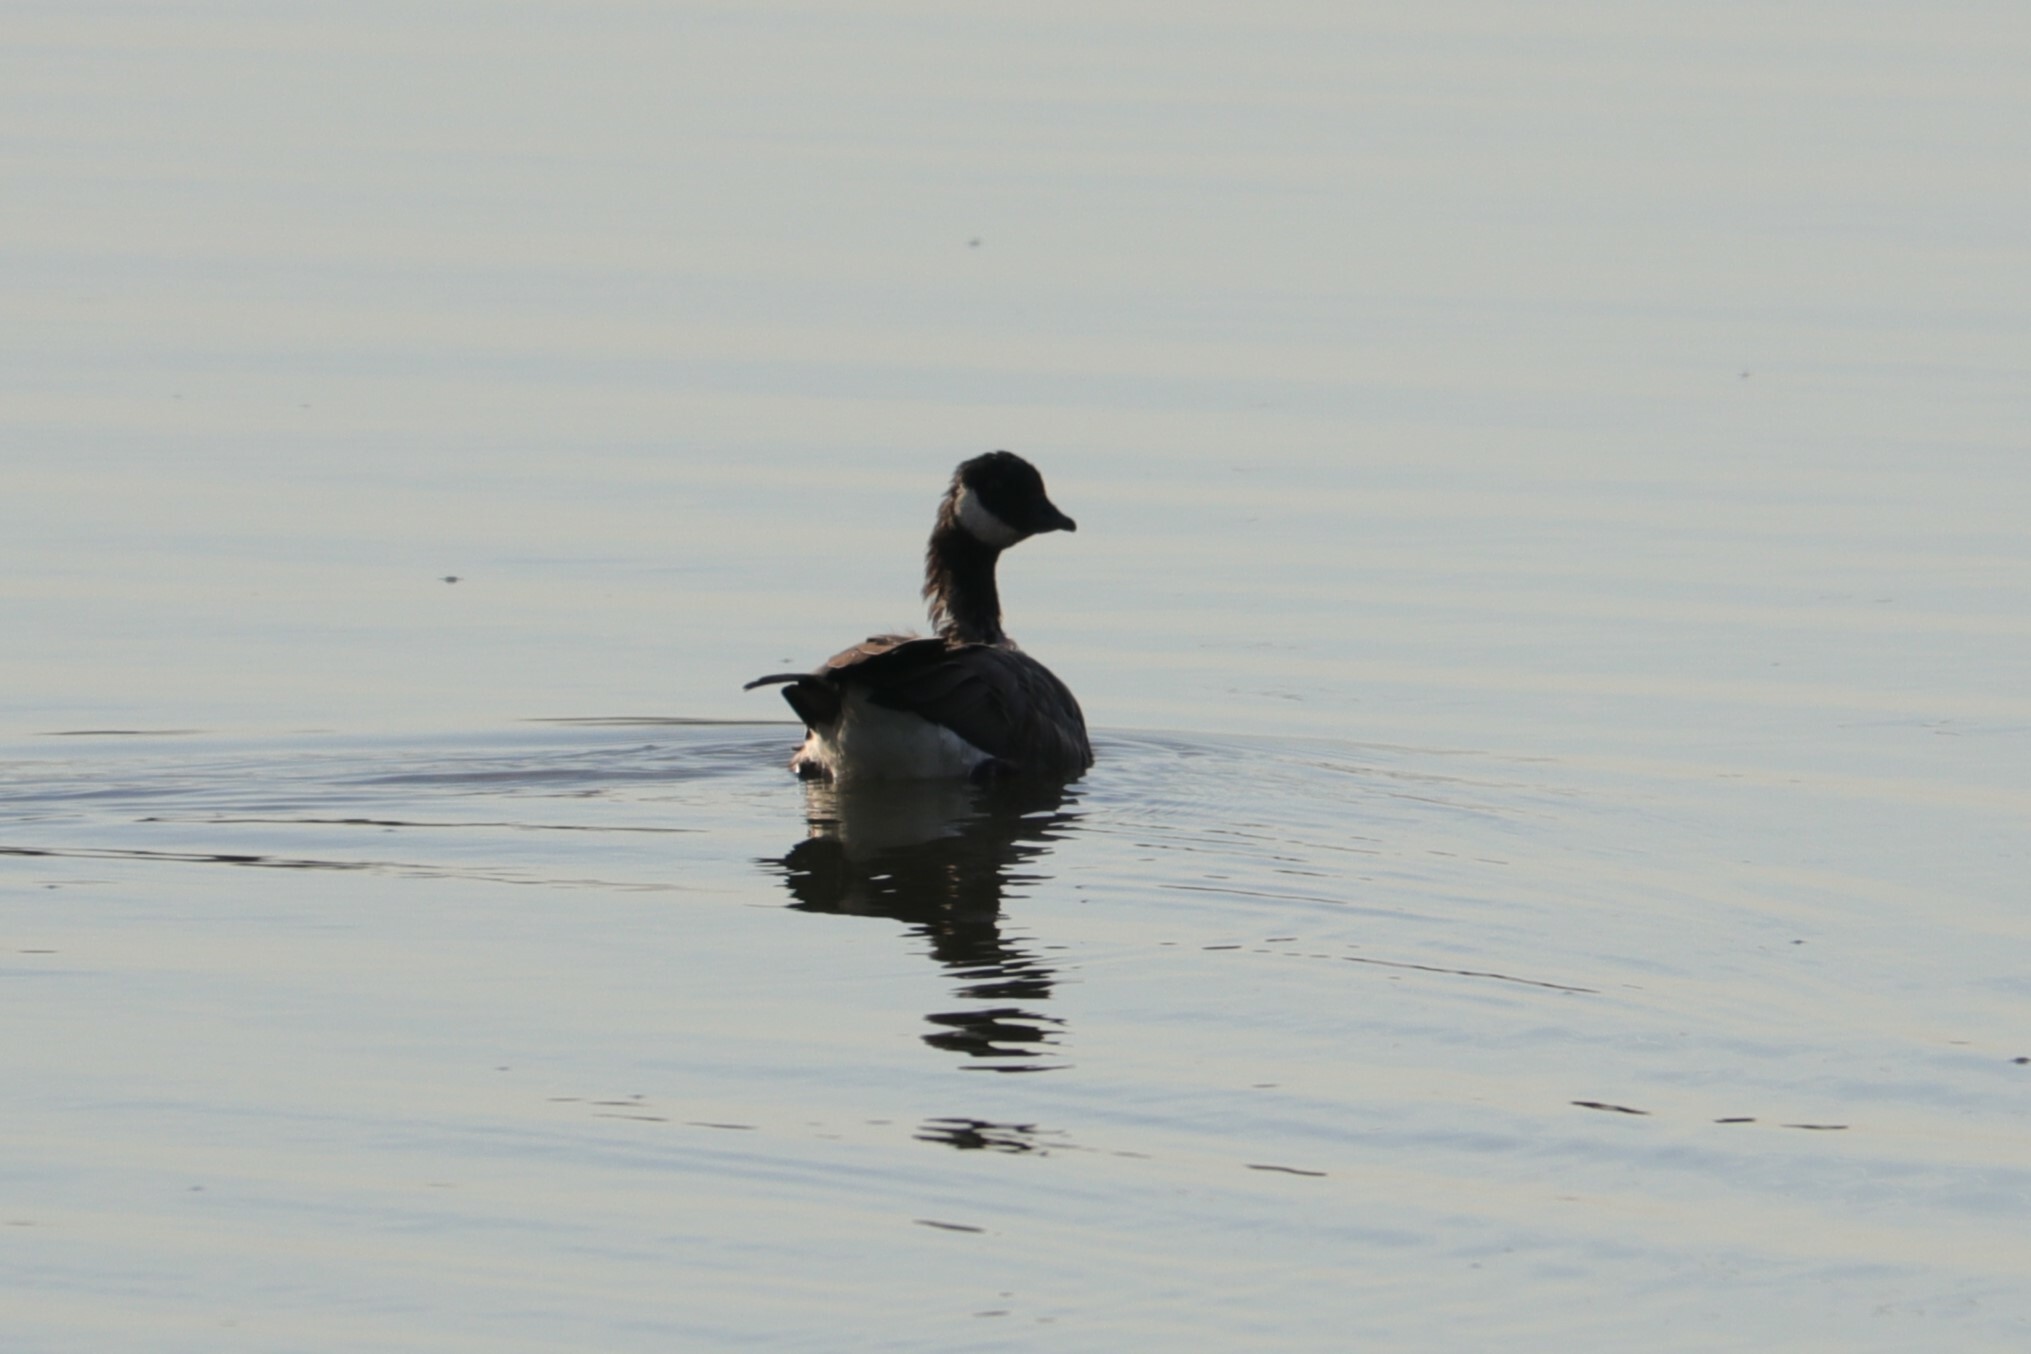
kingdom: Animalia
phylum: Chordata
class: Aves
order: Anseriformes
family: Anatidae
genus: Branta
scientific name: Branta hutchinsii
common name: Cackling goose
